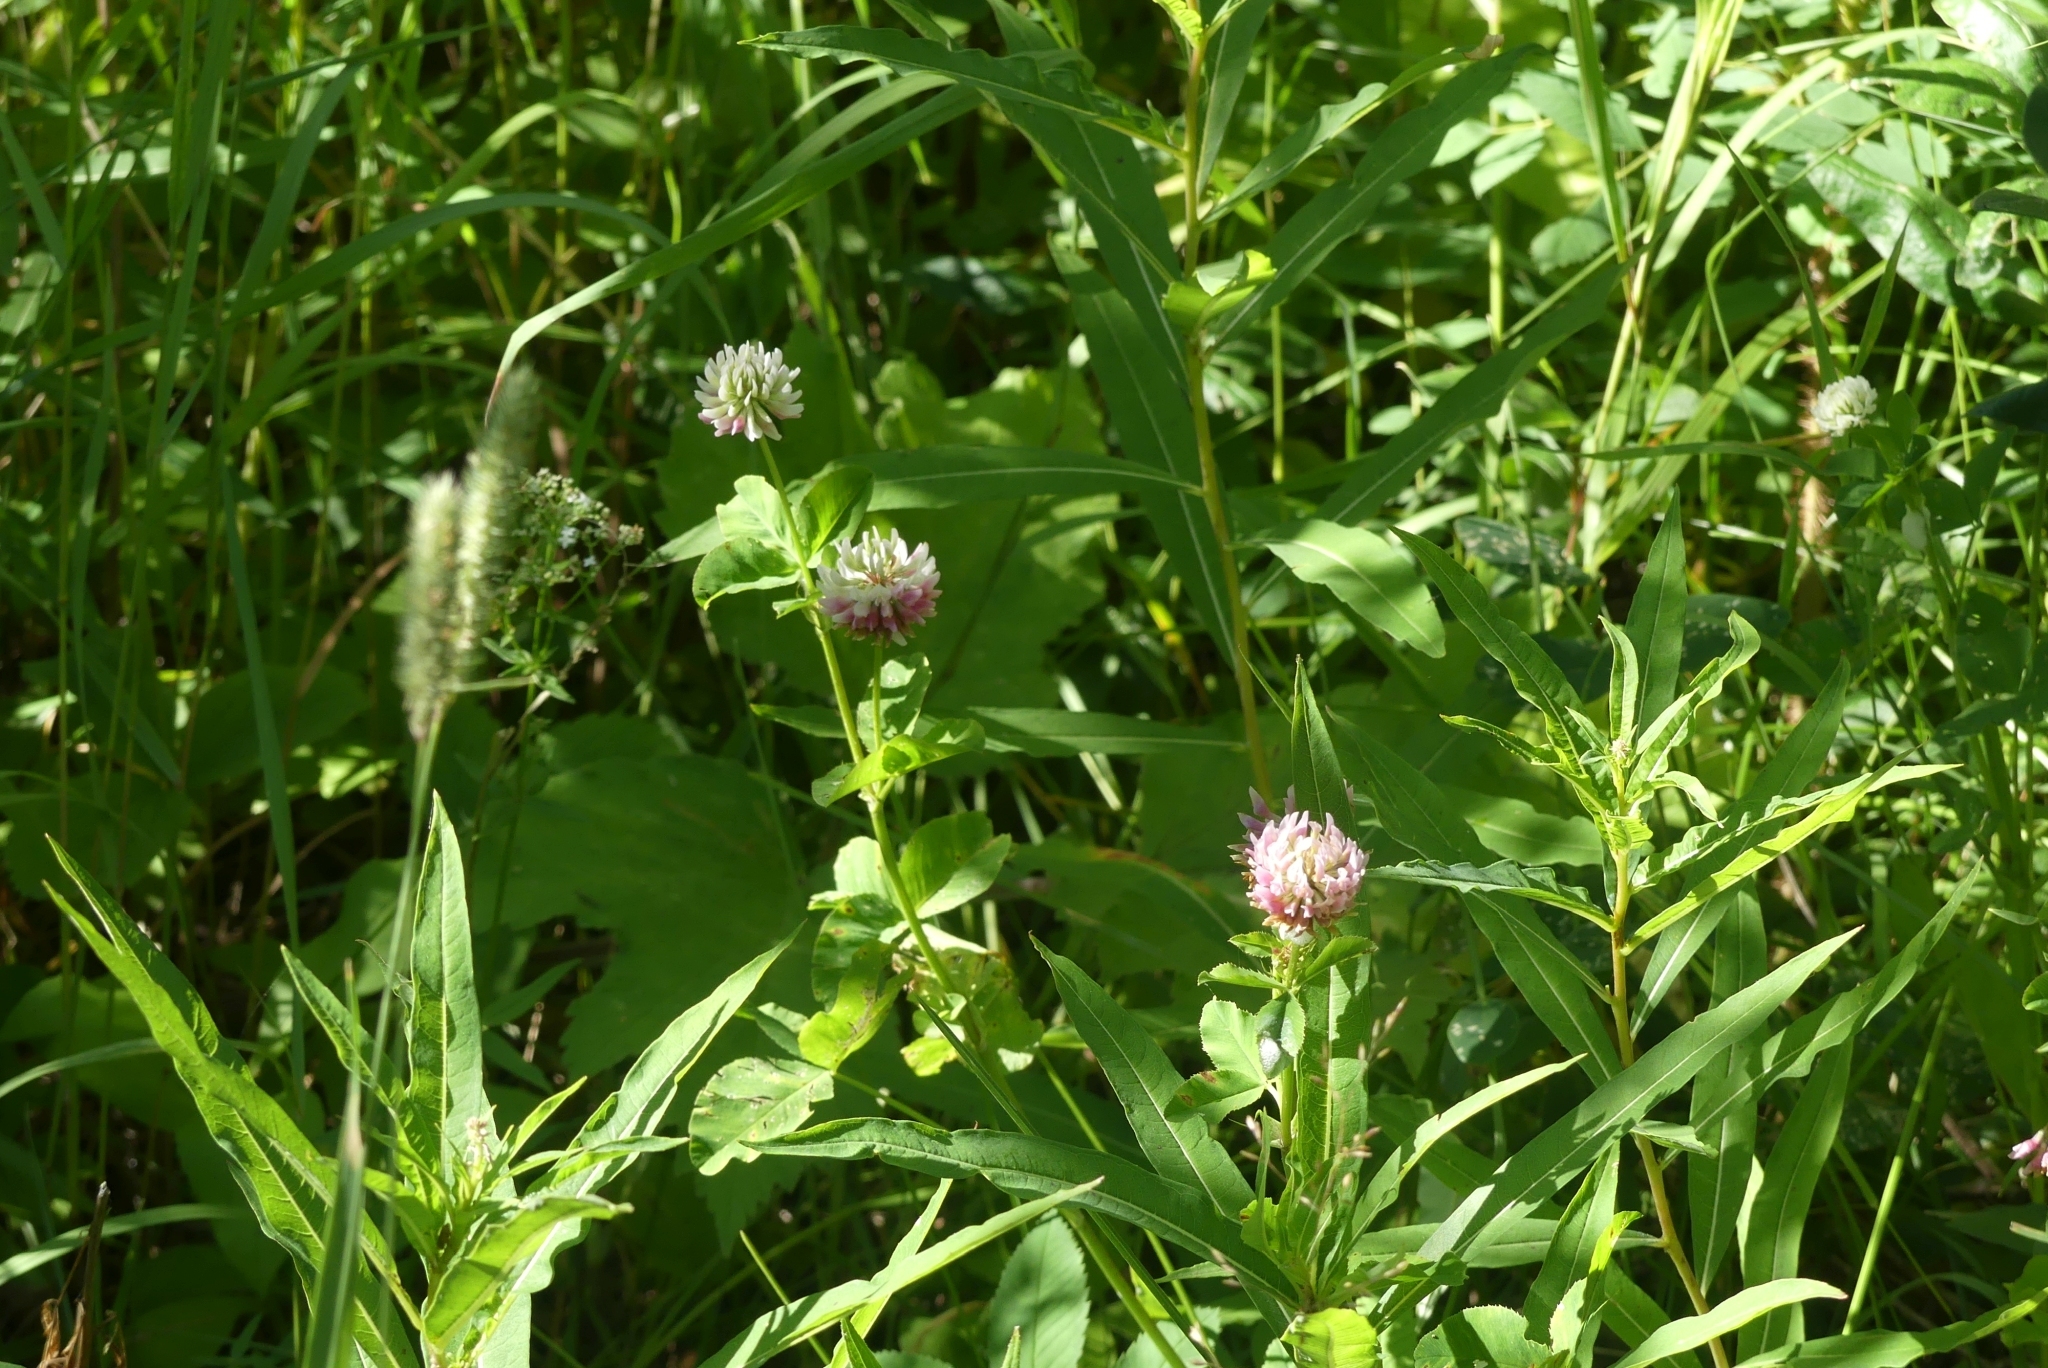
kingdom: Plantae
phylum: Tracheophyta
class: Magnoliopsida
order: Fabales
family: Fabaceae
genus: Trifolium
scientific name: Trifolium hybridum
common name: Alsike clover
